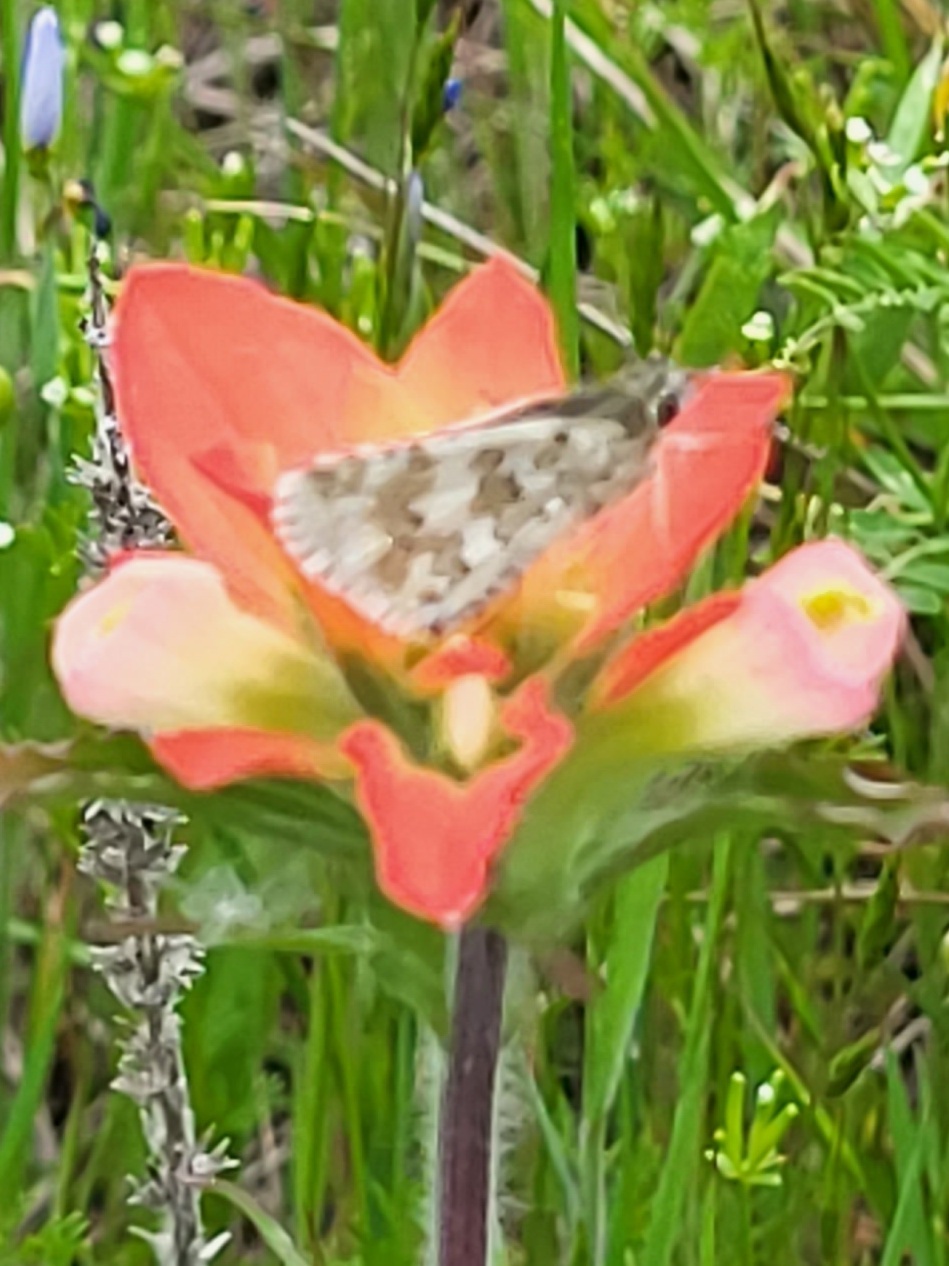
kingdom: Animalia
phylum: Arthropoda
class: Insecta
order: Lepidoptera
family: Hesperiidae
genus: Burnsius
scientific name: Burnsius communis
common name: Common checkered-skipper
